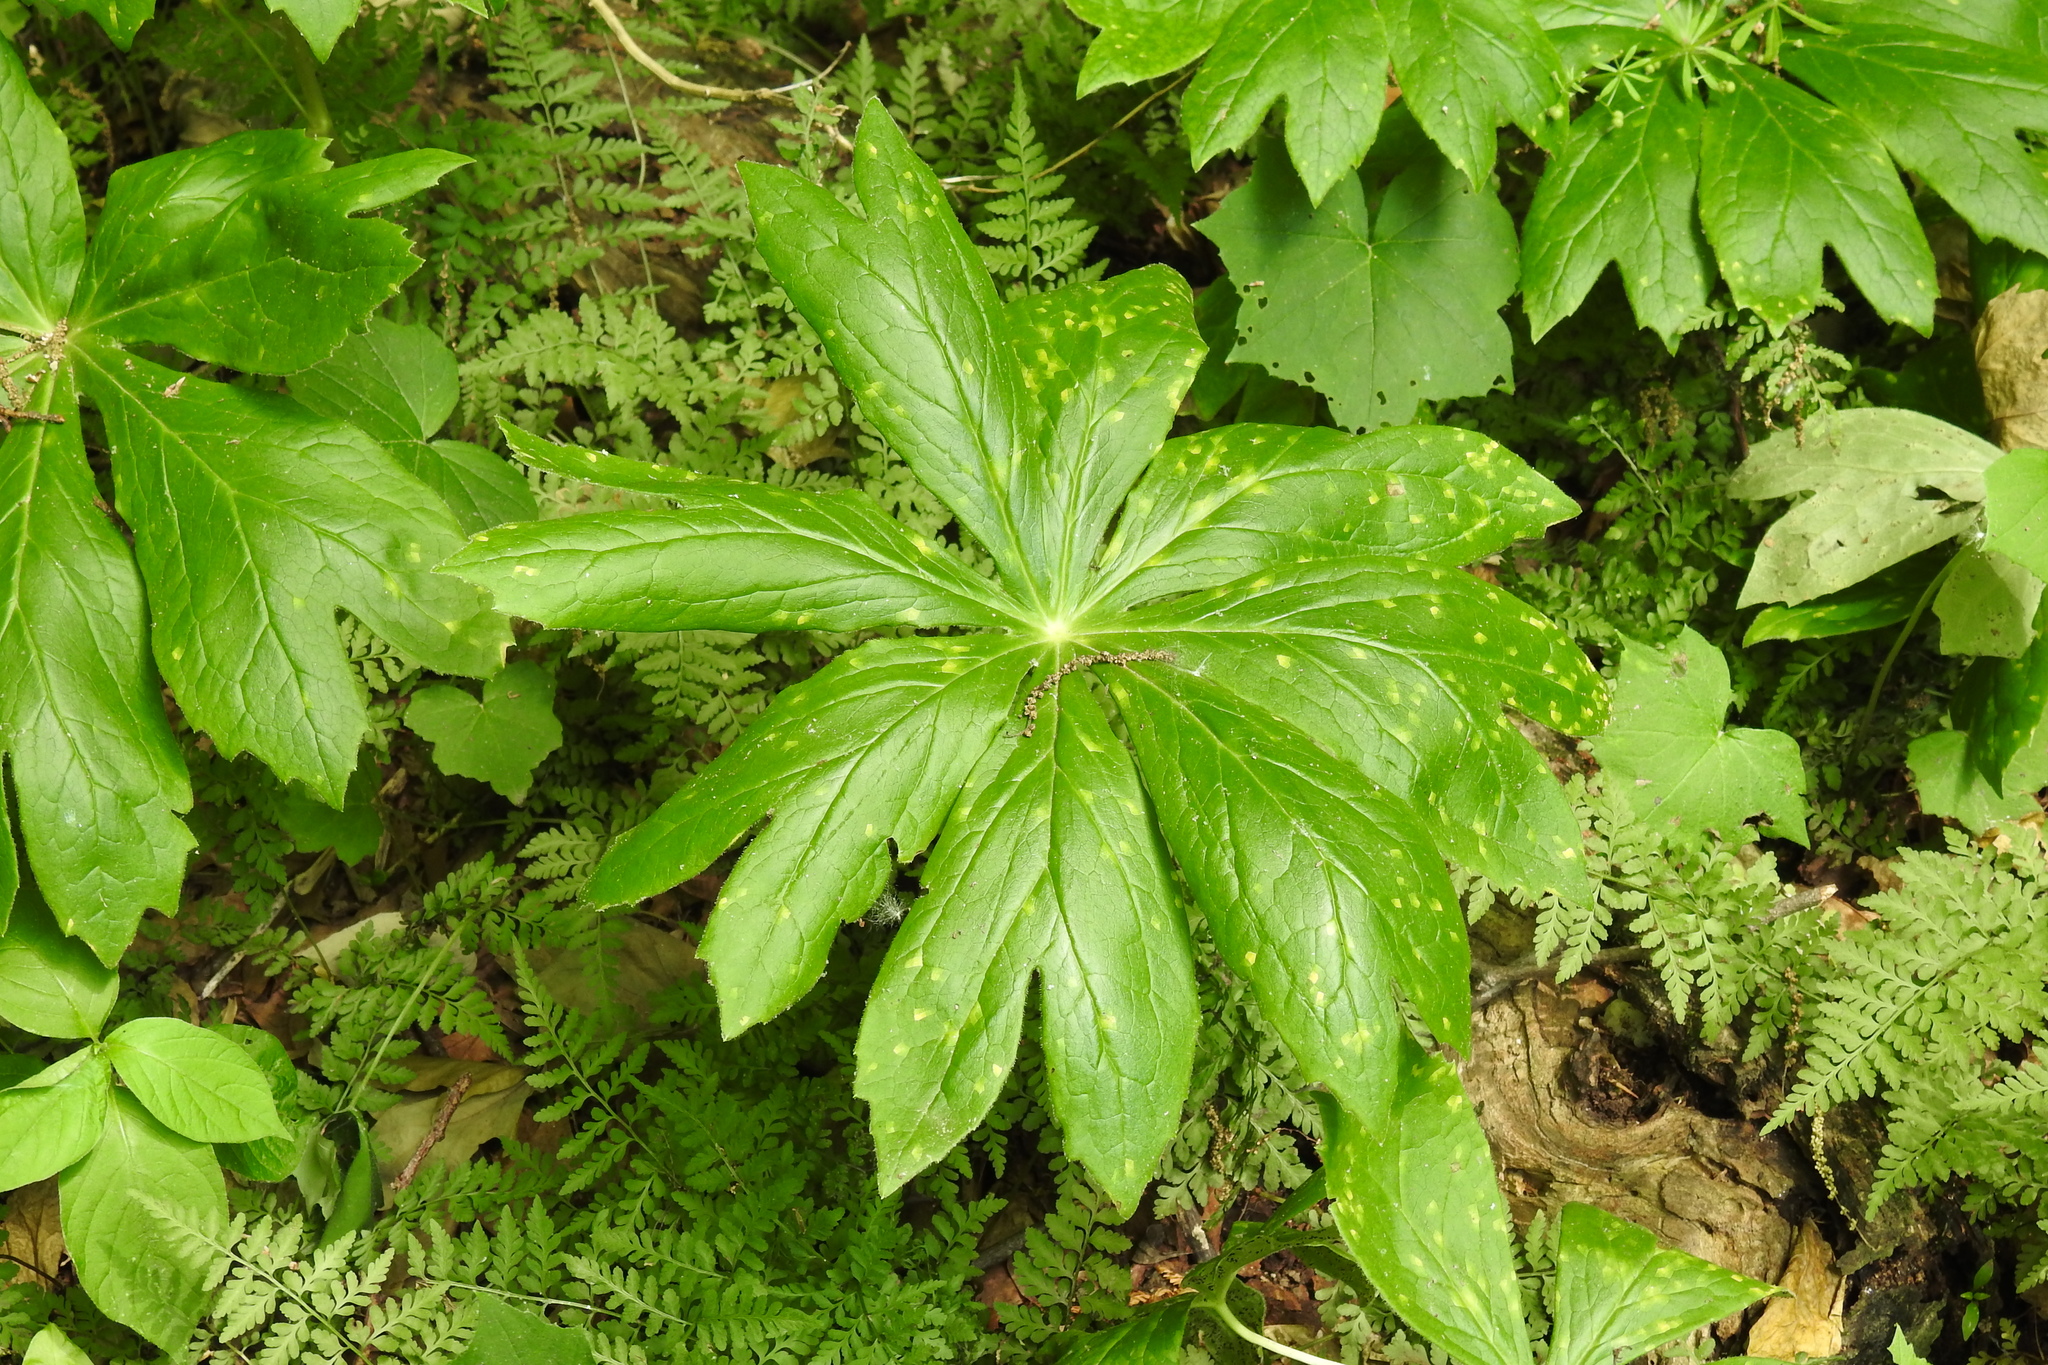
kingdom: Plantae
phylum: Tracheophyta
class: Magnoliopsida
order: Ranunculales
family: Berberidaceae
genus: Podophyllum
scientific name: Podophyllum peltatum
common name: Wild mandrake
